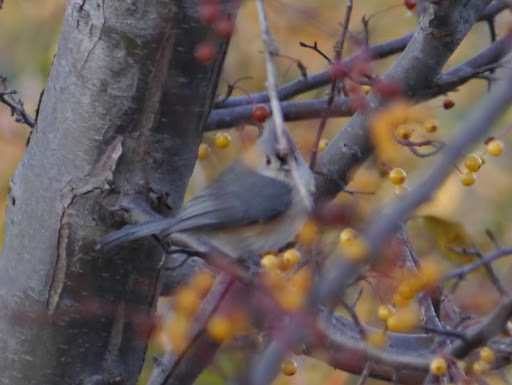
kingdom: Animalia
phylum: Chordata
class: Aves
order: Passeriformes
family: Paridae
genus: Baeolophus
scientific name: Baeolophus bicolor
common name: Tufted titmouse
